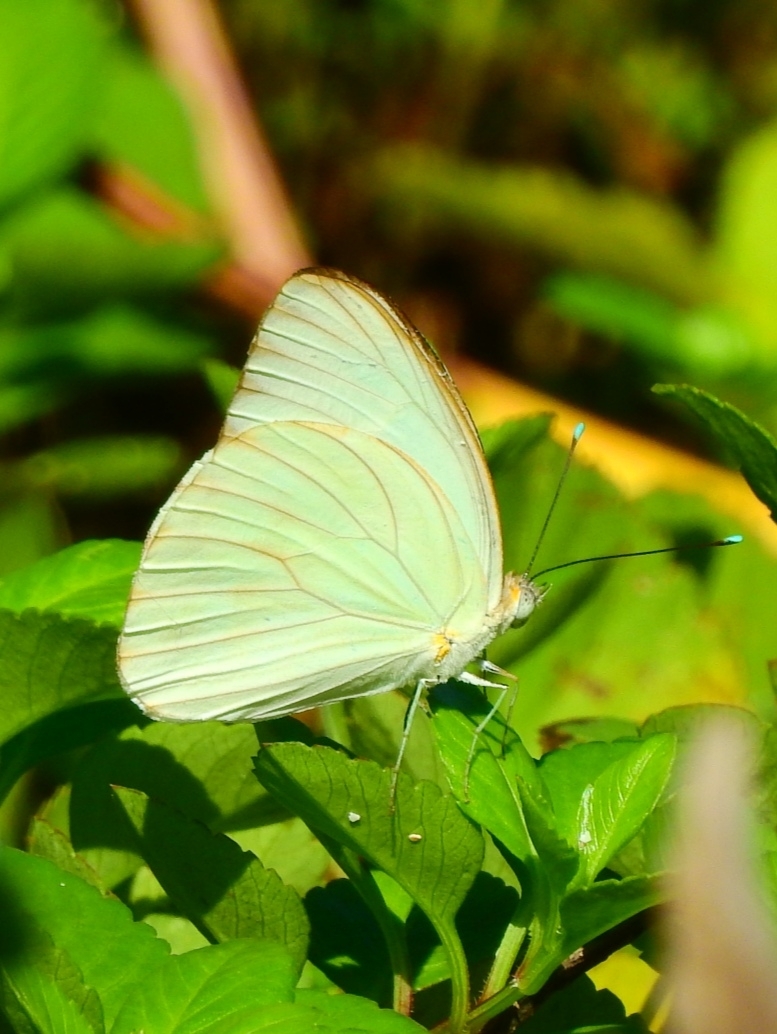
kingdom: Animalia
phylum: Arthropoda
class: Insecta
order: Lepidoptera
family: Pieridae
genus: Ascia
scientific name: Ascia monuste
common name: Great southern white
